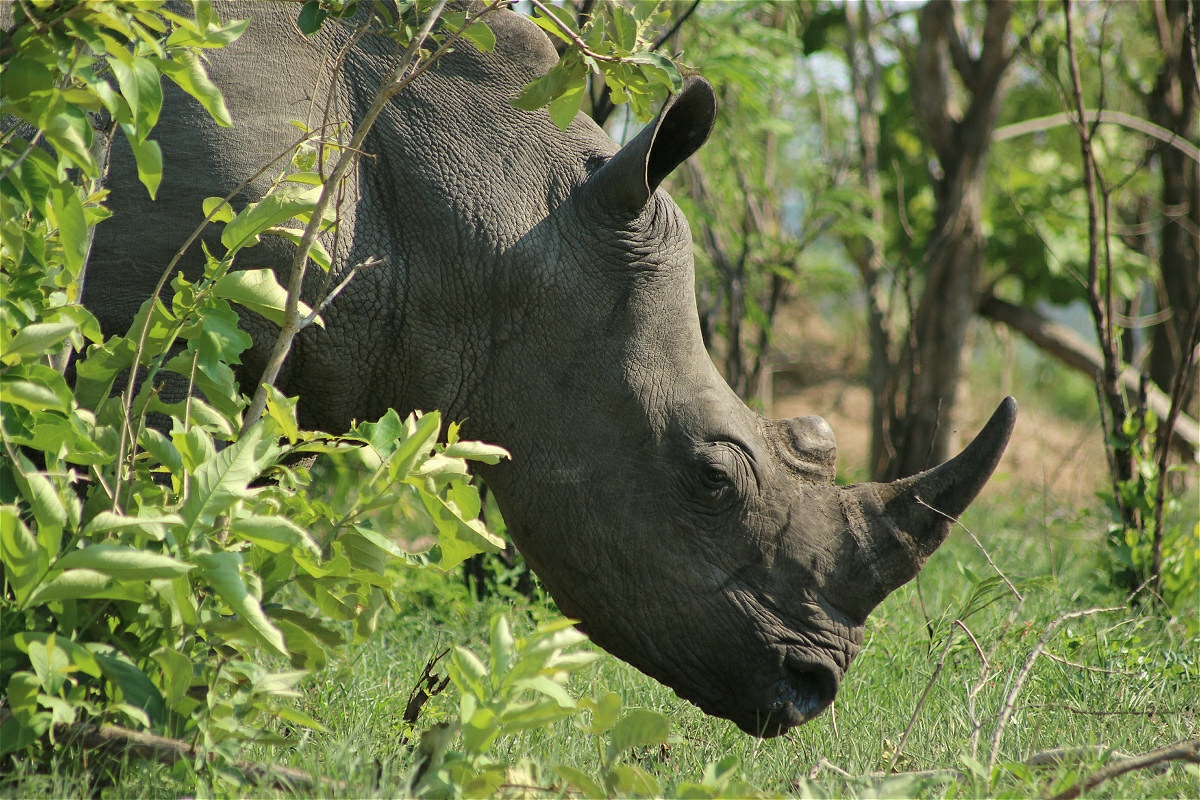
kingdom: Animalia
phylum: Chordata
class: Mammalia
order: Perissodactyla
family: Rhinocerotidae
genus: Ceratotherium
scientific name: Ceratotherium simum
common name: White rhinoceros
